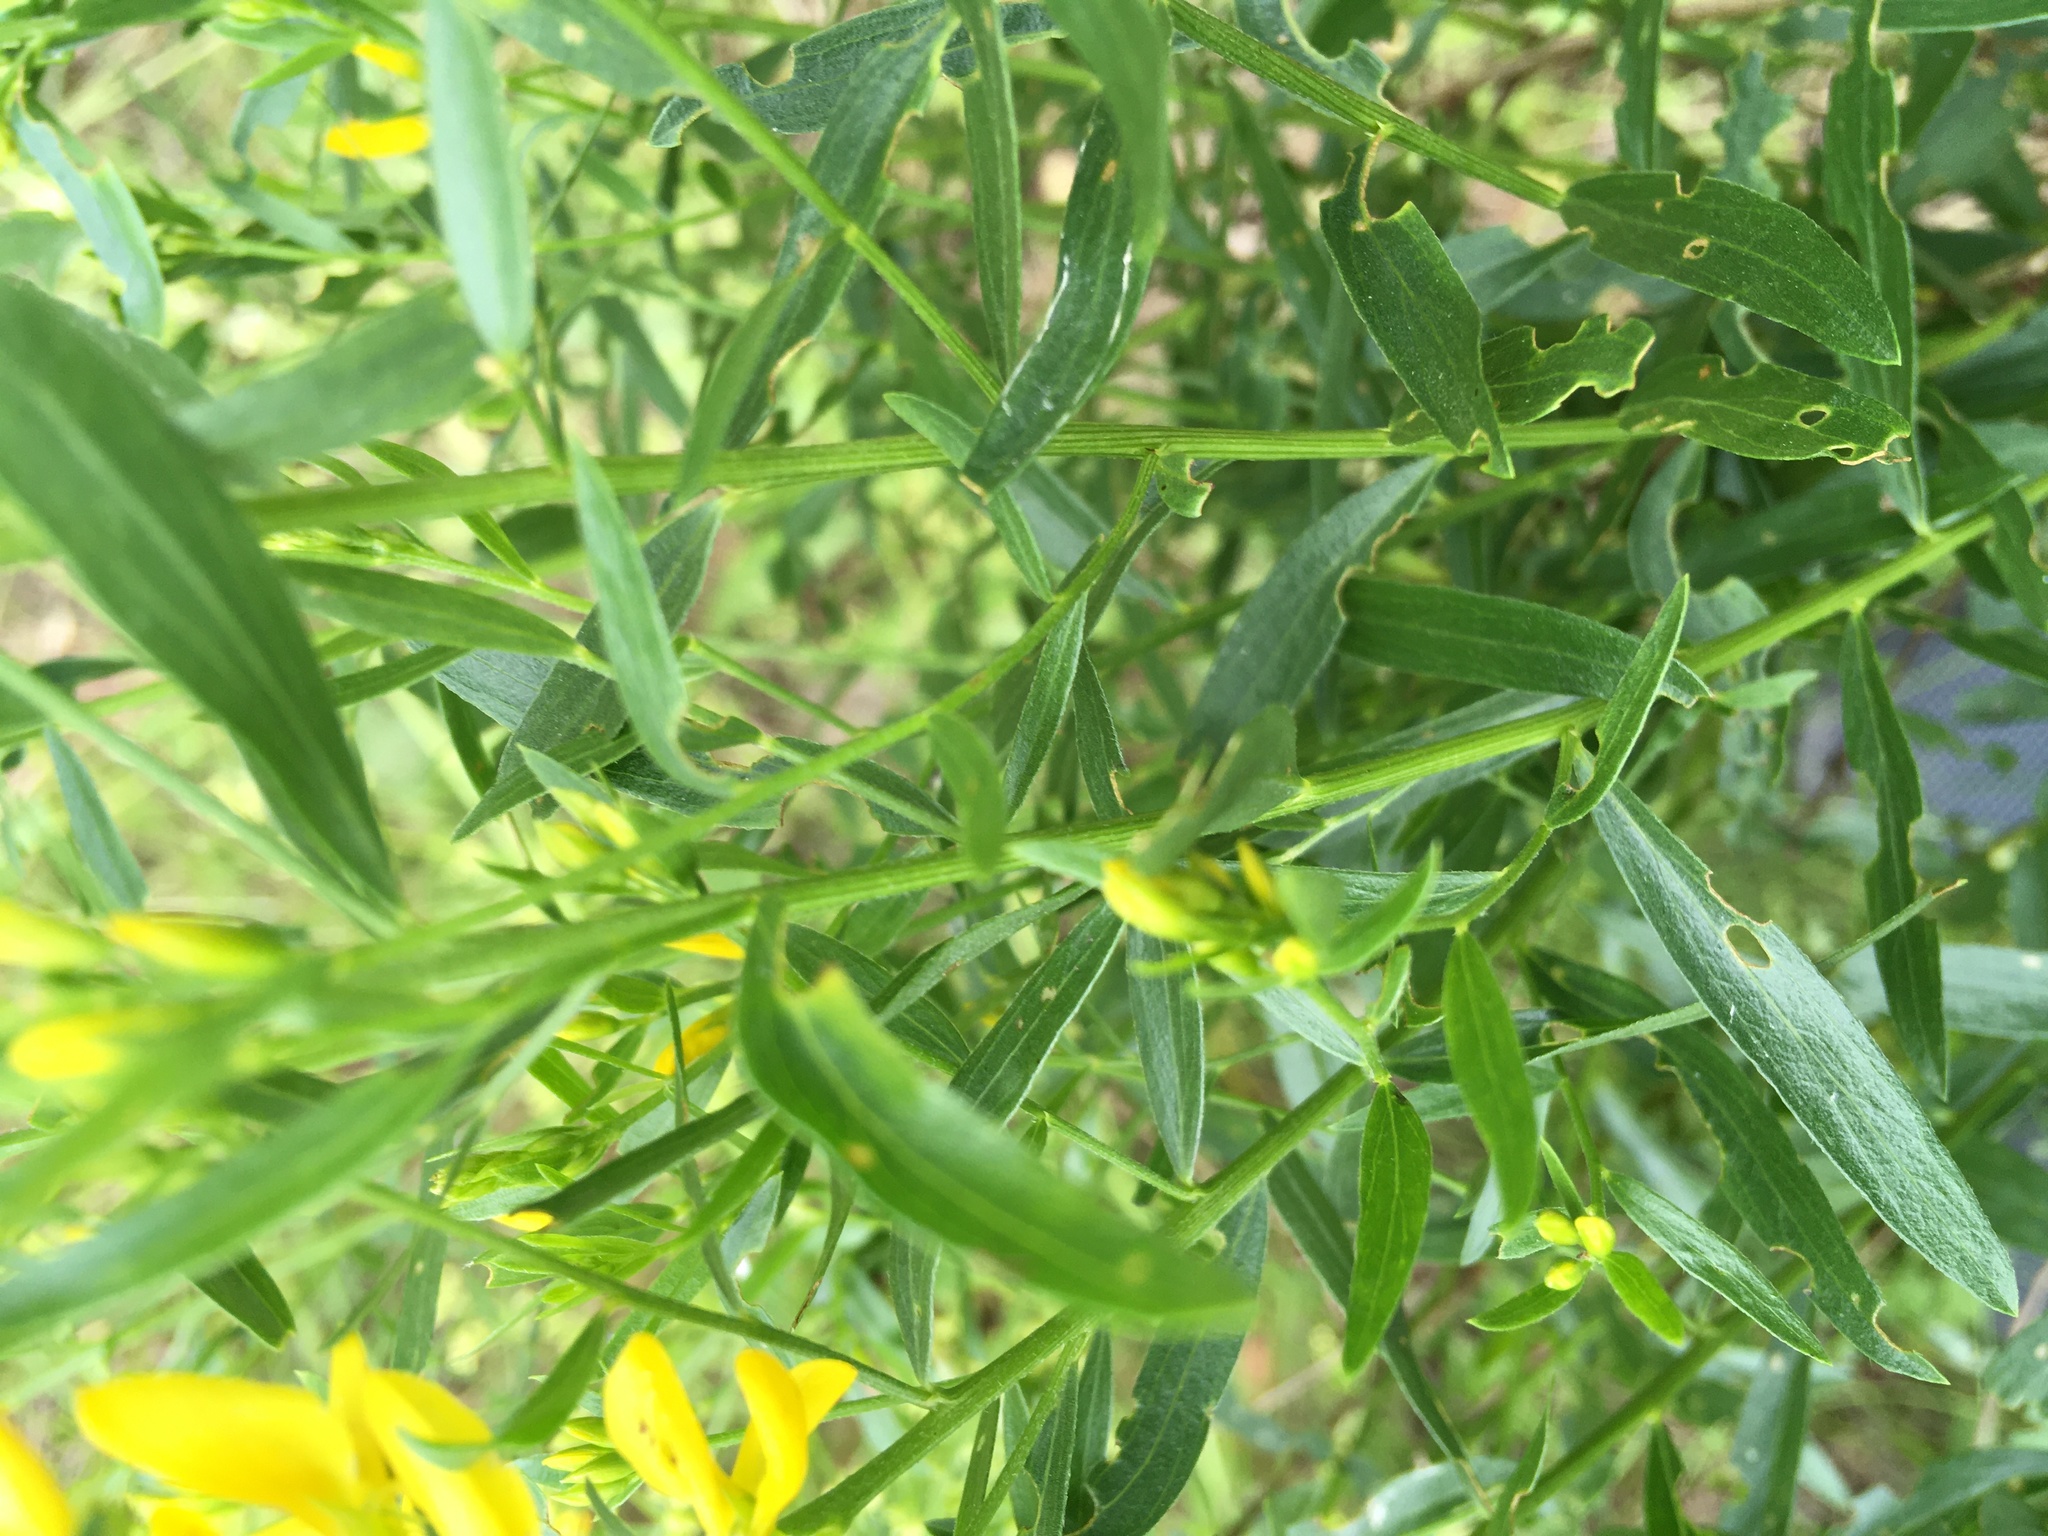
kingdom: Plantae
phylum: Tracheophyta
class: Magnoliopsida
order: Fabales
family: Fabaceae
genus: Genista
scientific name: Genista tinctoria
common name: Dyer's greenweed
